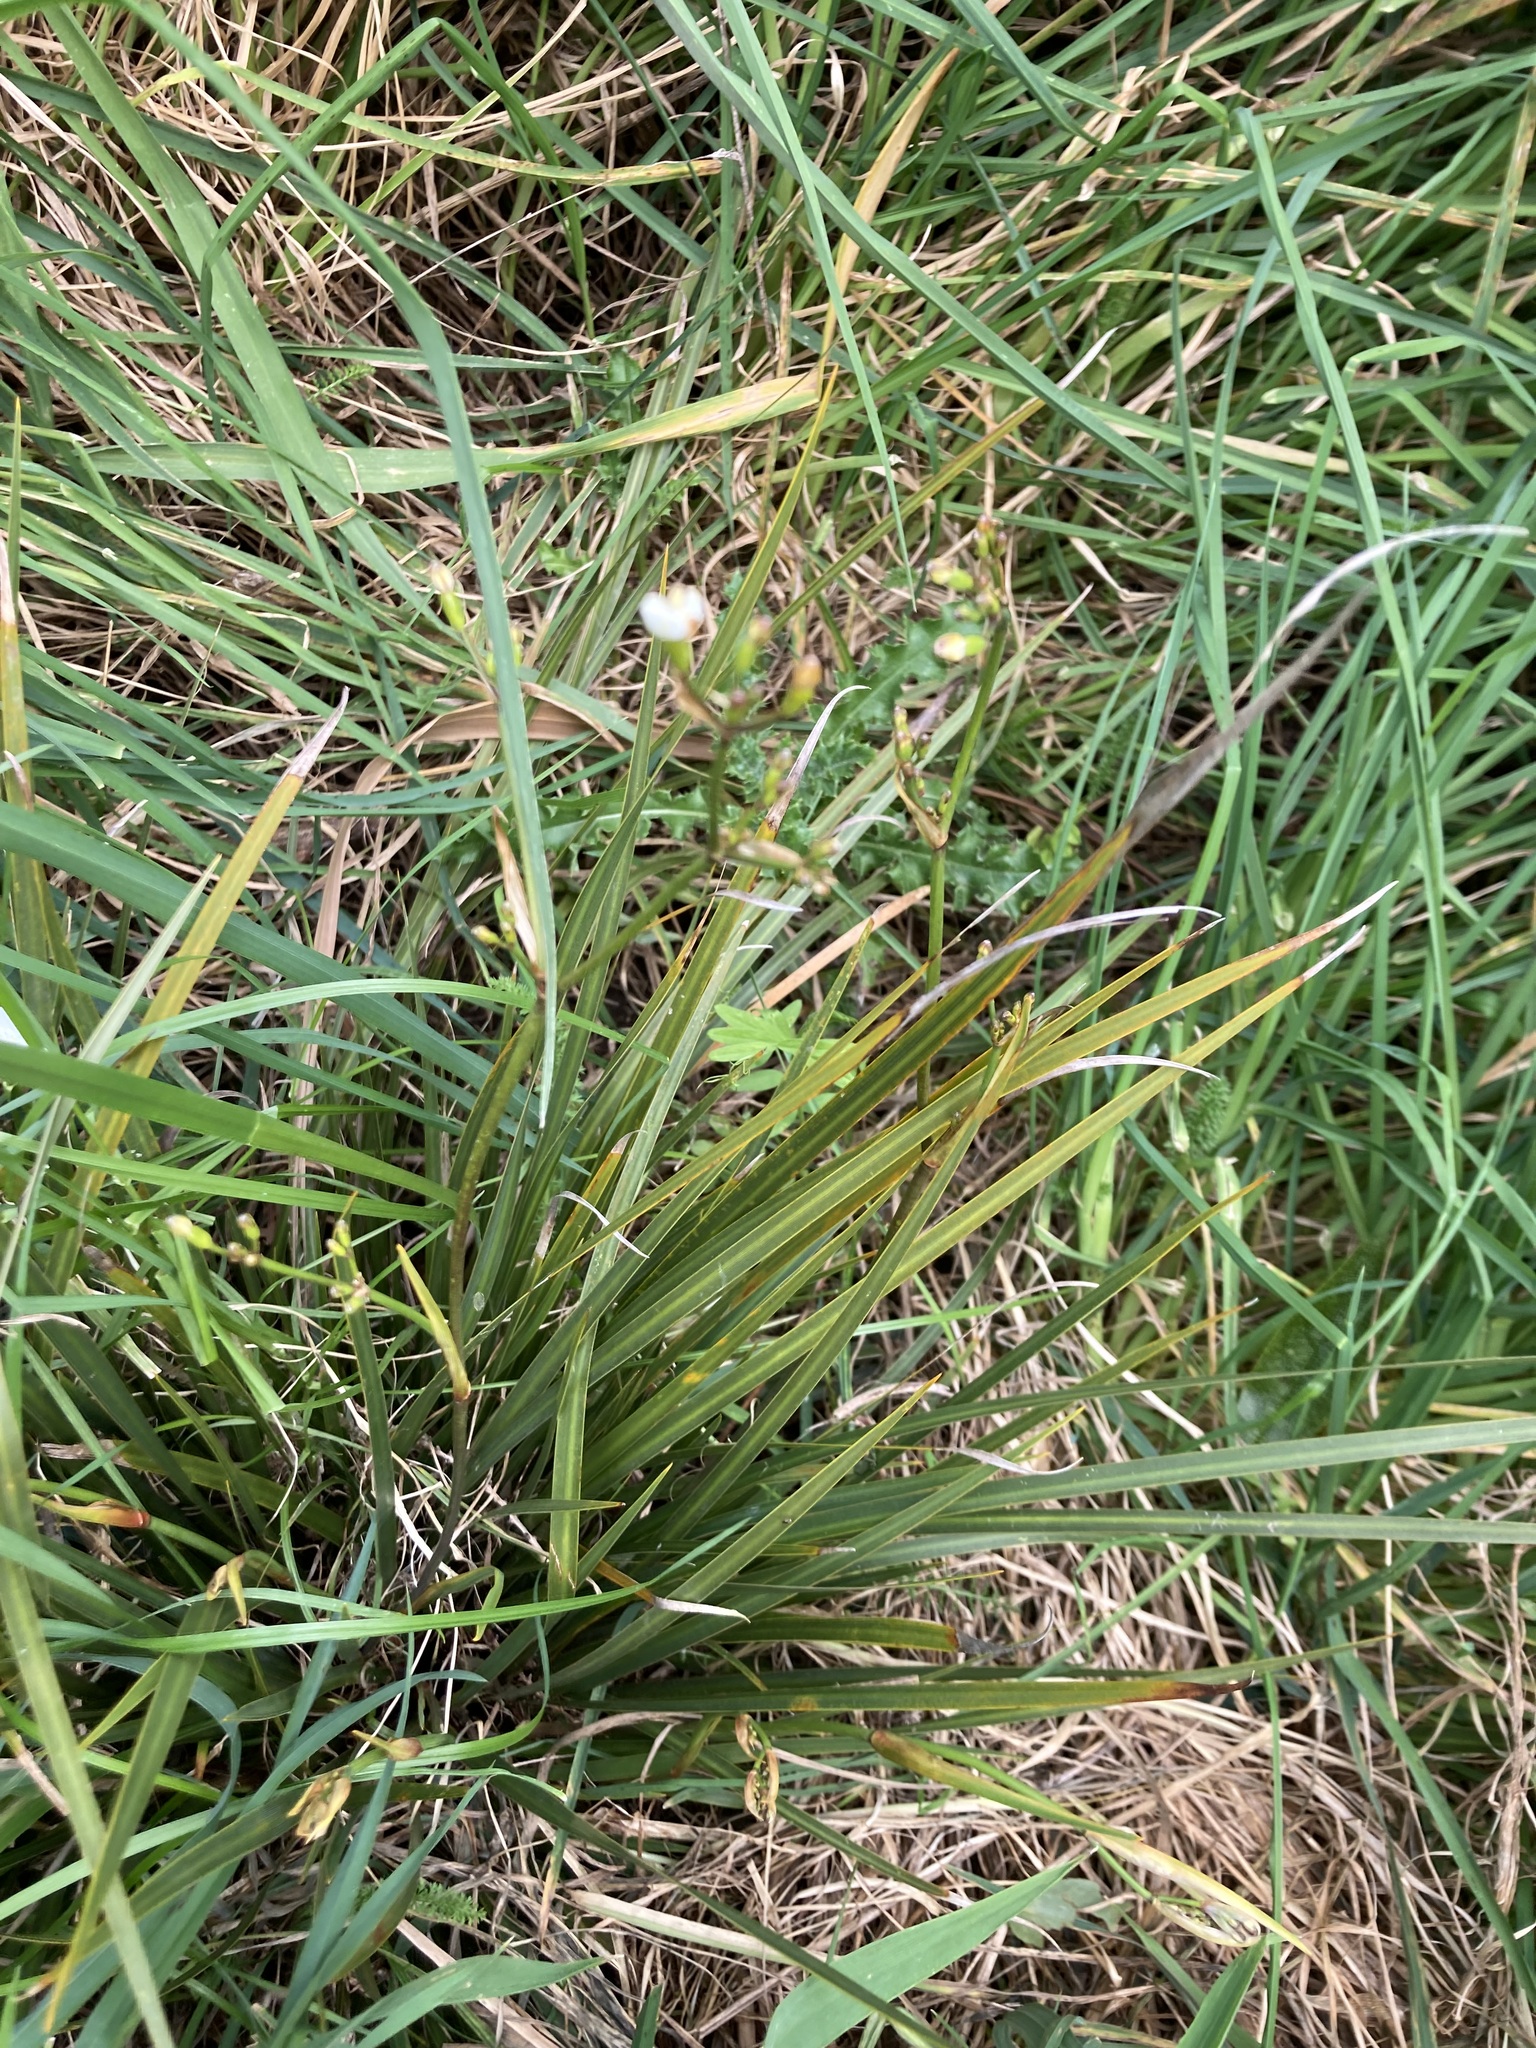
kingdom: Plantae
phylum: Tracheophyta
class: Liliopsida
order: Asparagales
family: Iridaceae
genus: Libertia
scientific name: Libertia ixioides
